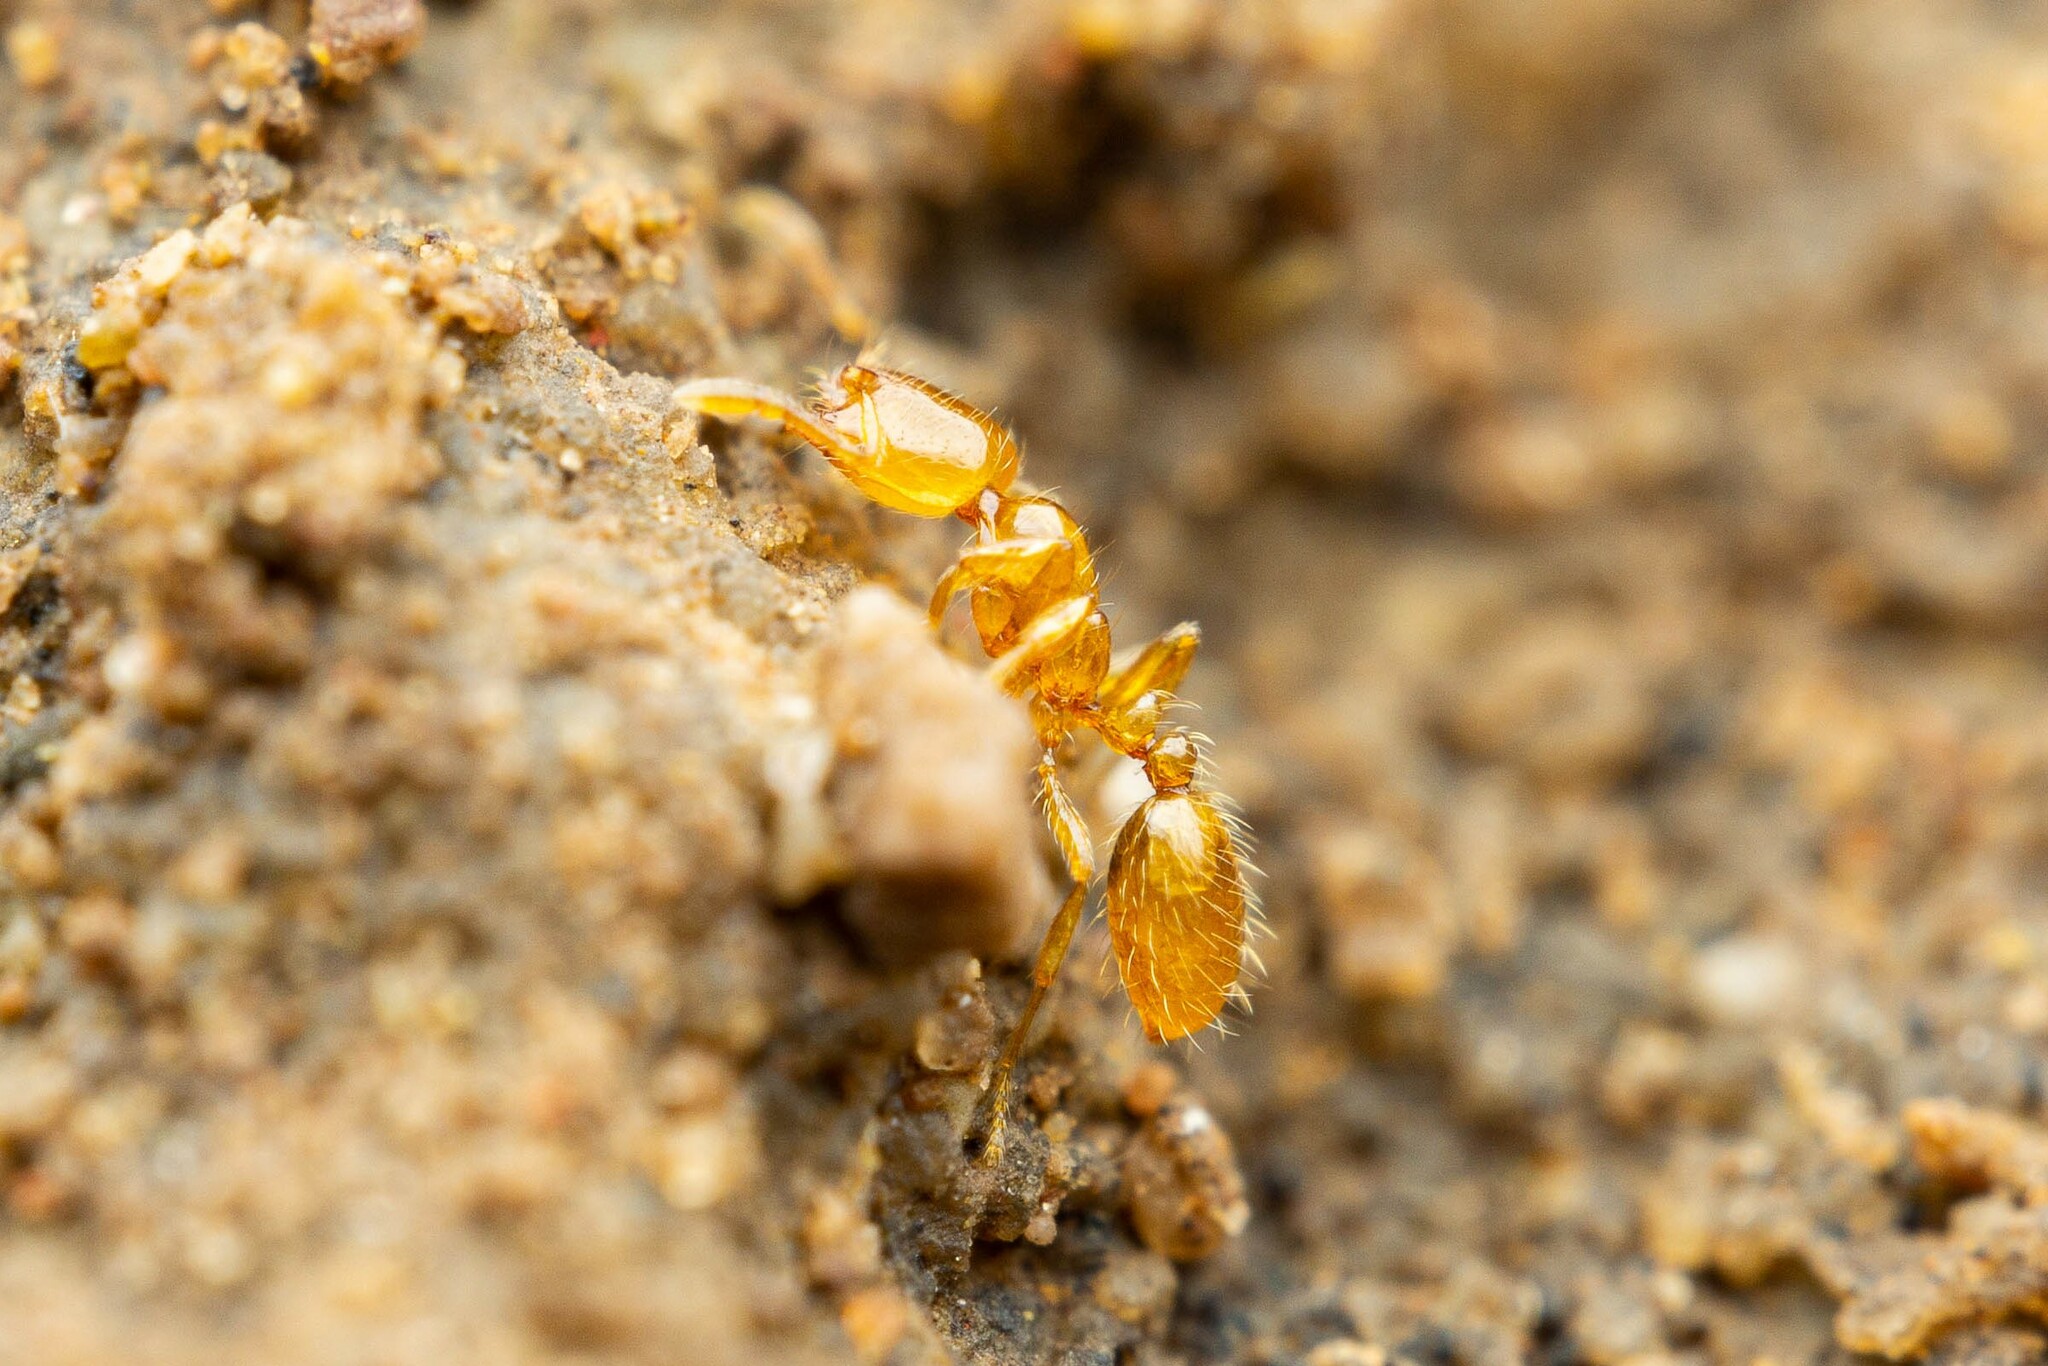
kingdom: Animalia
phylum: Arthropoda
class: Insecta
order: Hymenoptera
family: Formicidae
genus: Solenopsis
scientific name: Solenopsis
